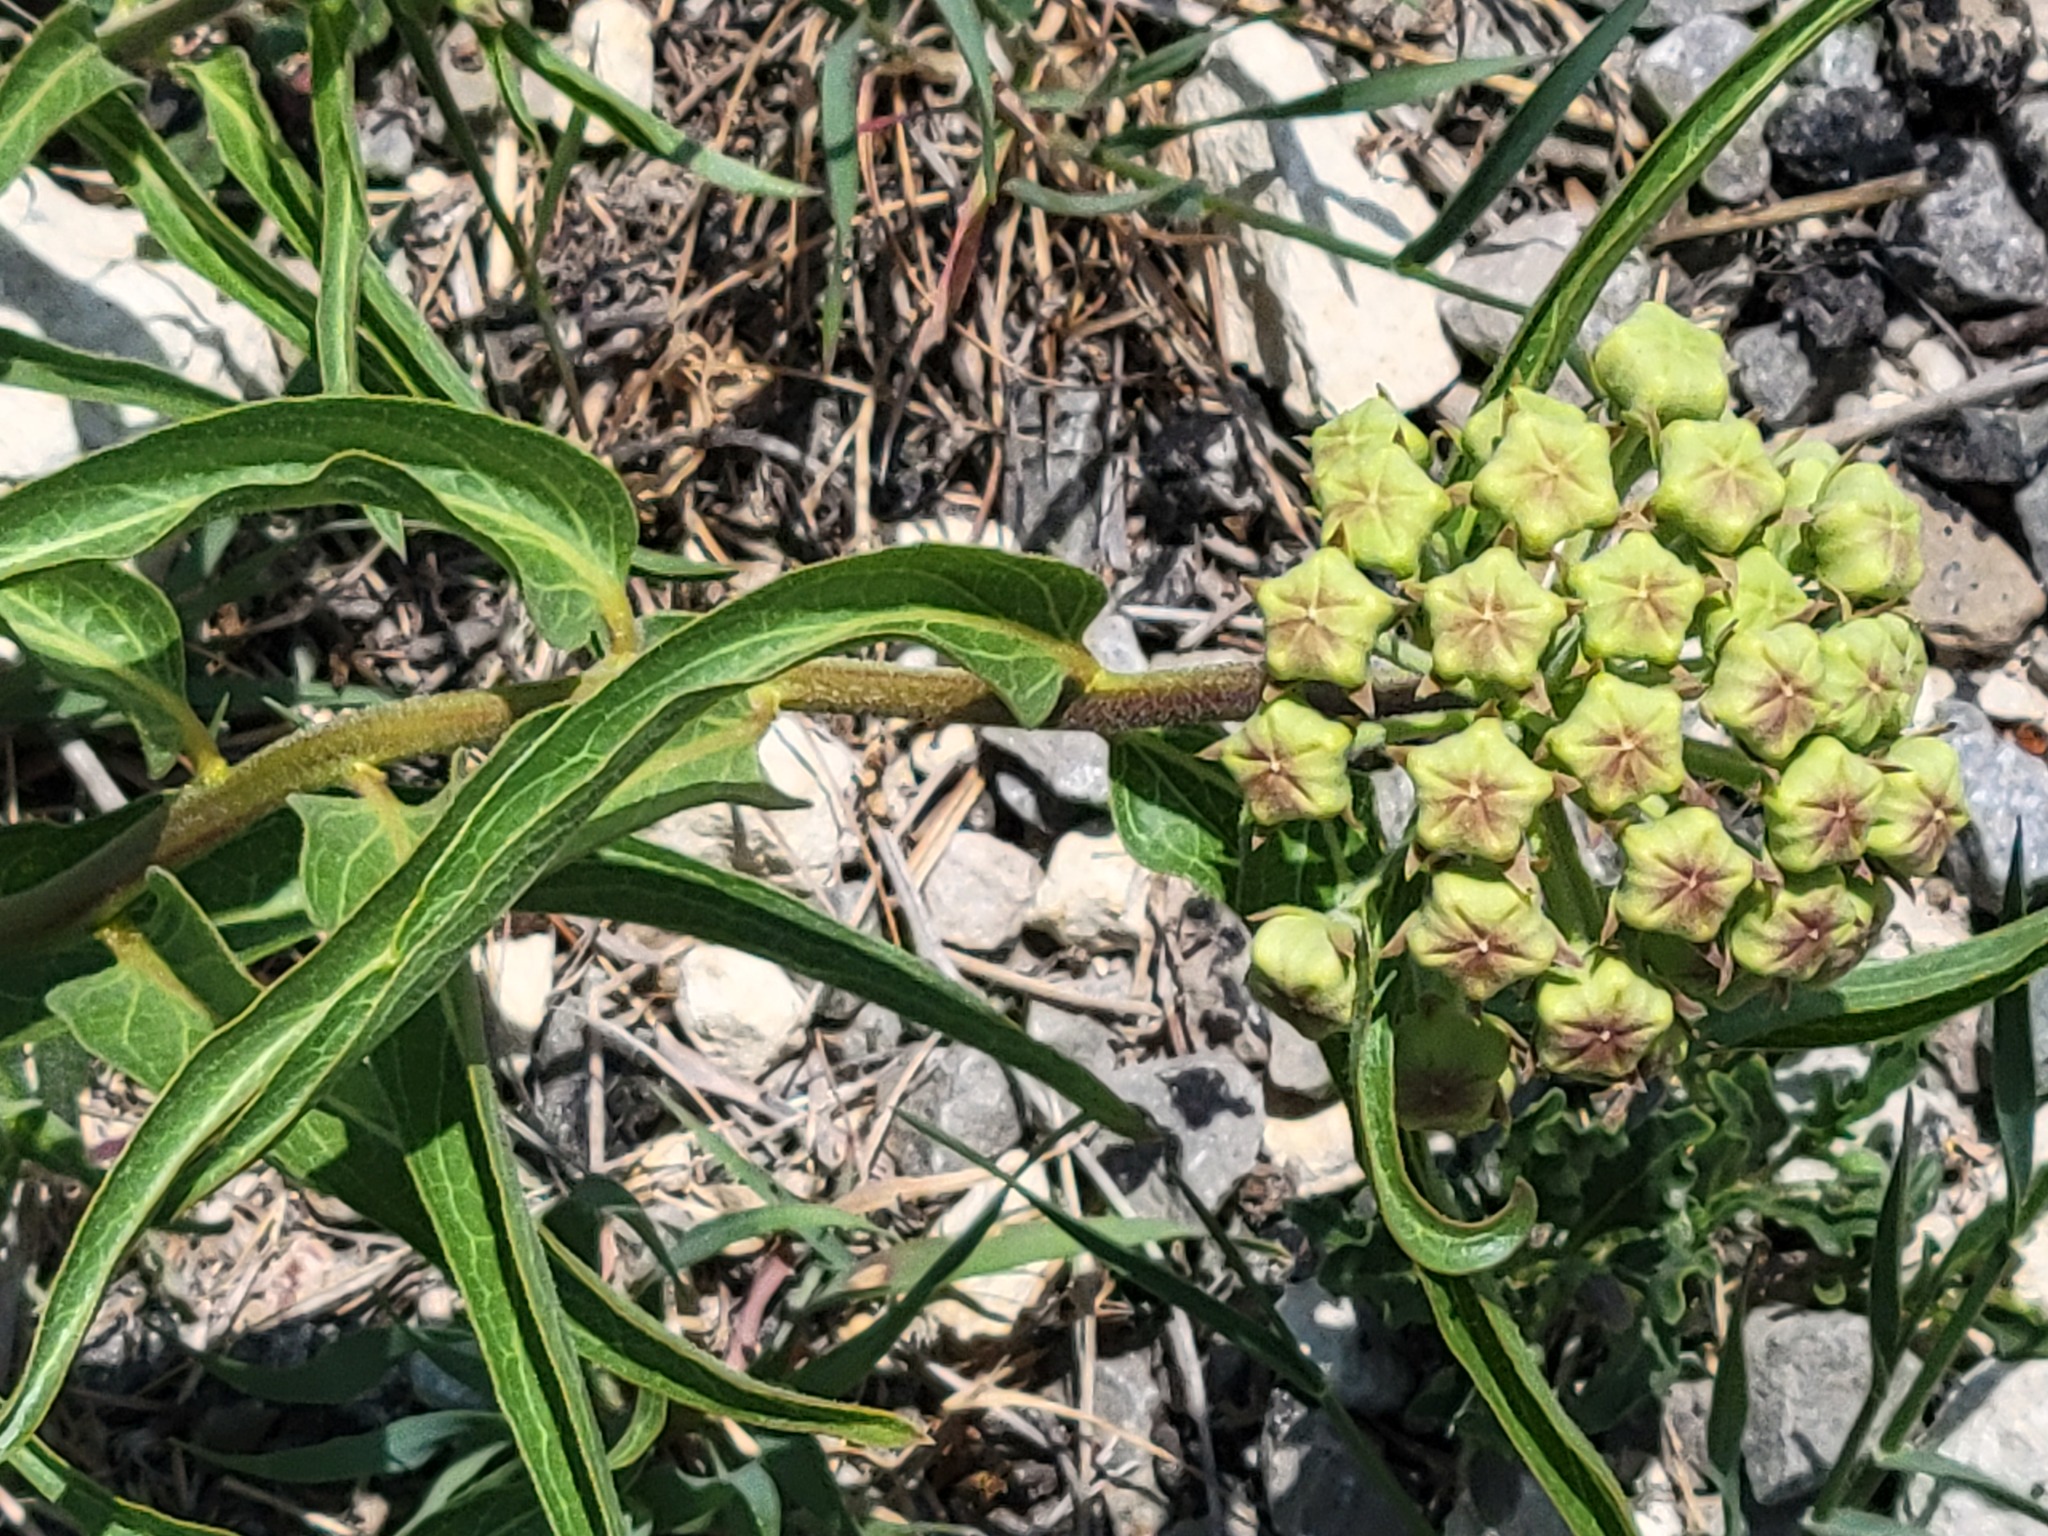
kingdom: Plantae
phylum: Tracheophyta
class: Magnoliopsida
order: Gentianales
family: Apocynaceae
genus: Asclepias
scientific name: Asclepias asperula
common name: Antelope horns
